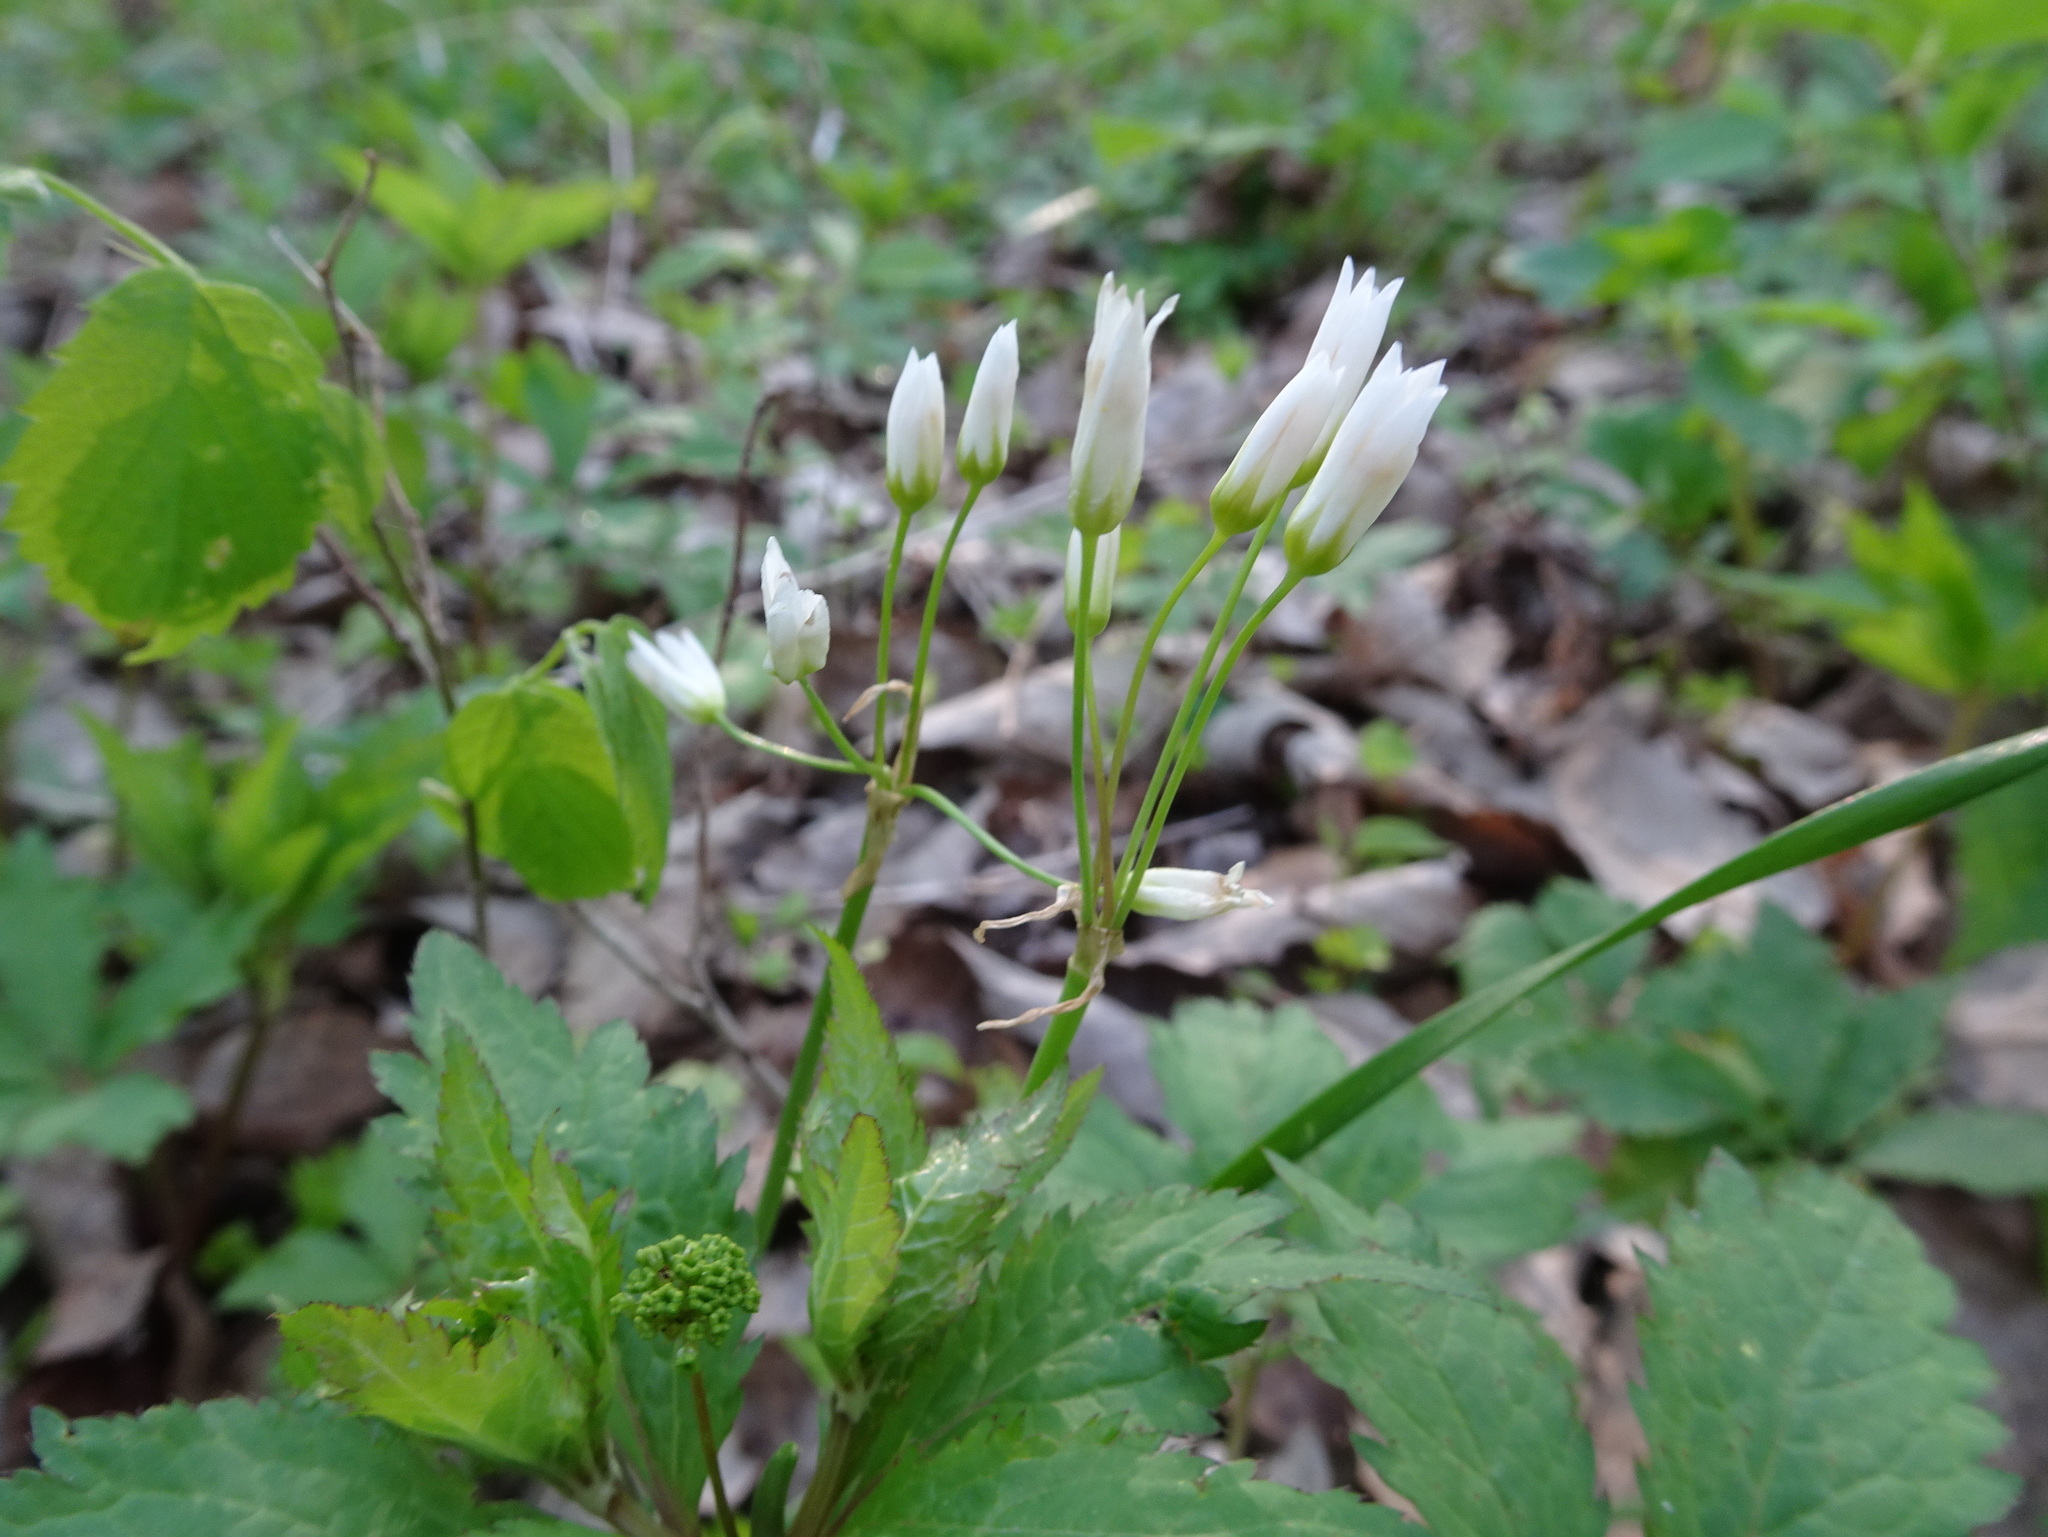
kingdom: Plantae
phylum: Tracheophyta
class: Liliopsida
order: Asparagales
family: Amaryllidaceae
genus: Nothoscordum
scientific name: Nothoscordum bivalve
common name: Crow-poison
